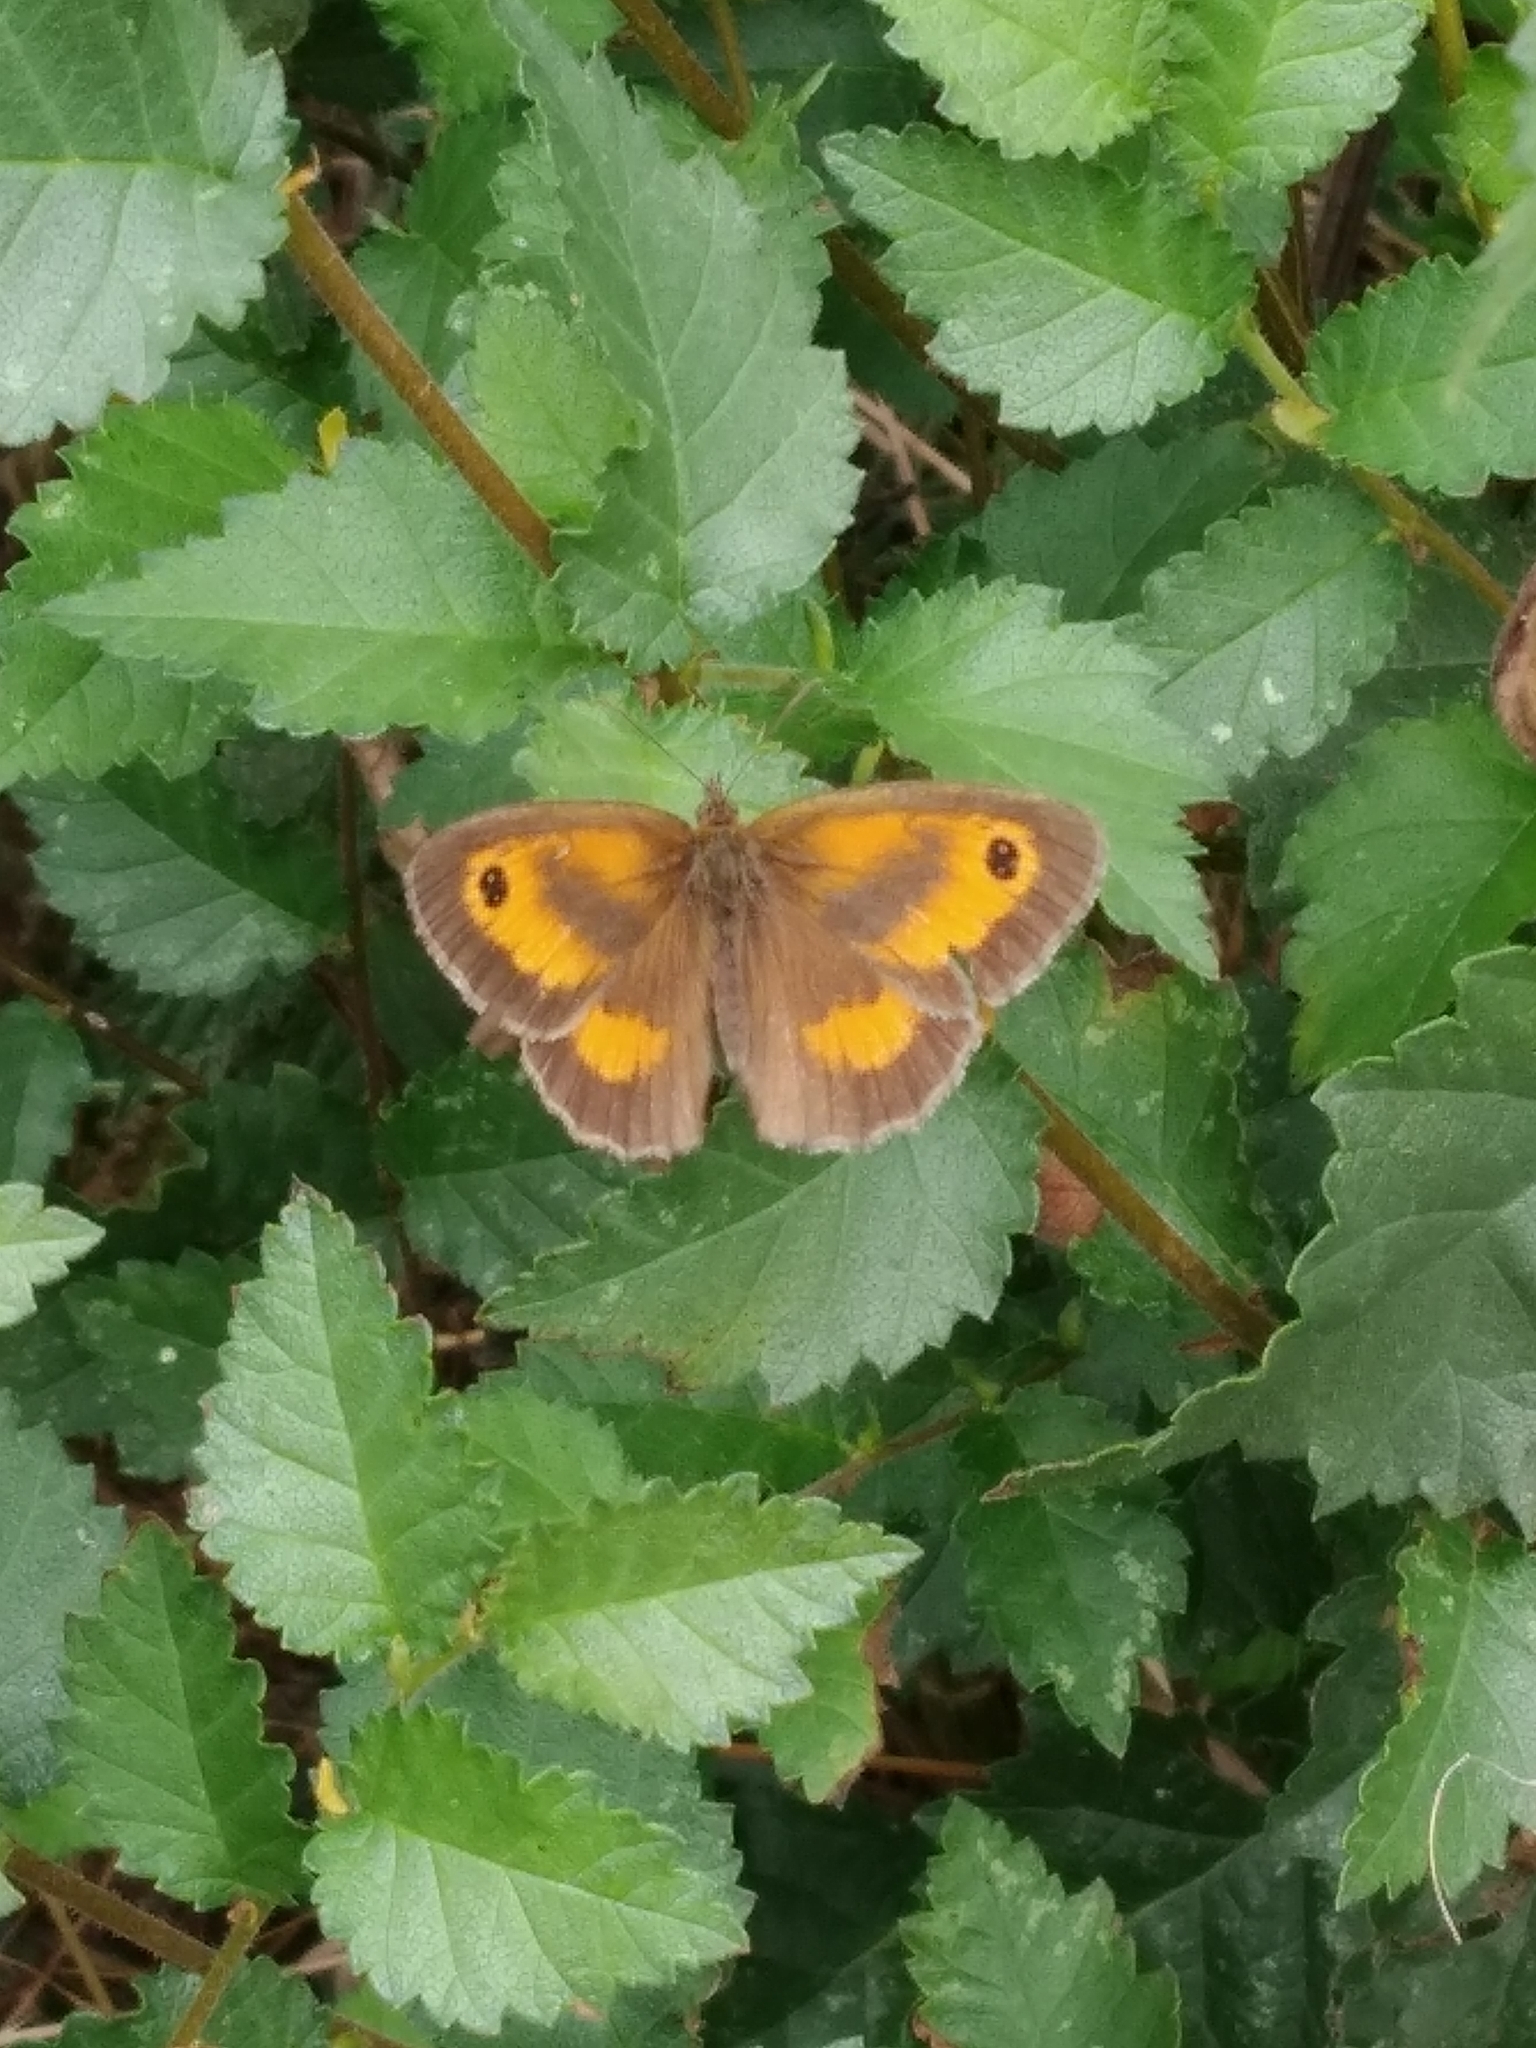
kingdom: Animalia
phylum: Arthropoda
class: Insecta
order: Lepidoptera
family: Nymphalidae
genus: Pyronia
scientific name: Pyronia tithonus
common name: Gatekeeper
